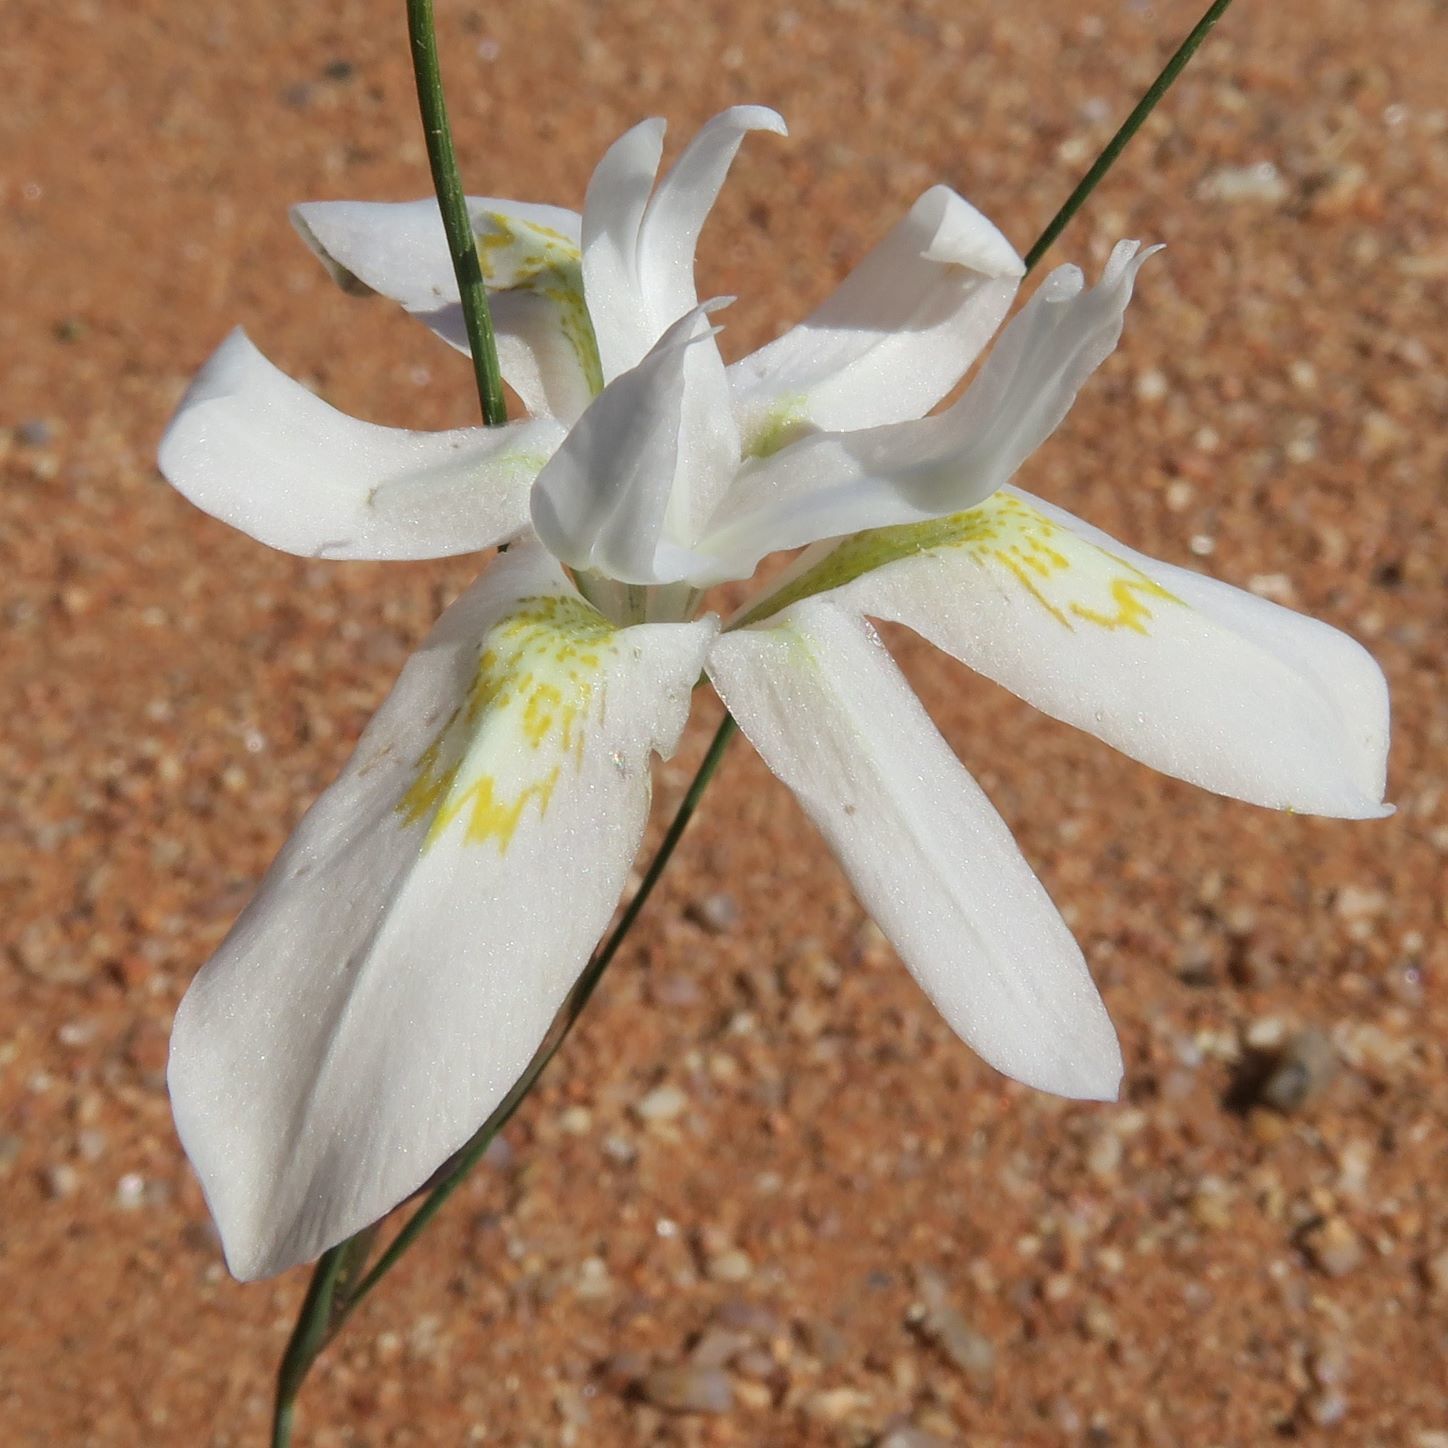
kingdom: Plantae
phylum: Tracheophyta
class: Liliopsida
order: Asparagales
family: Iridaceae
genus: Moraea
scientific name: Moraea filicaulis
